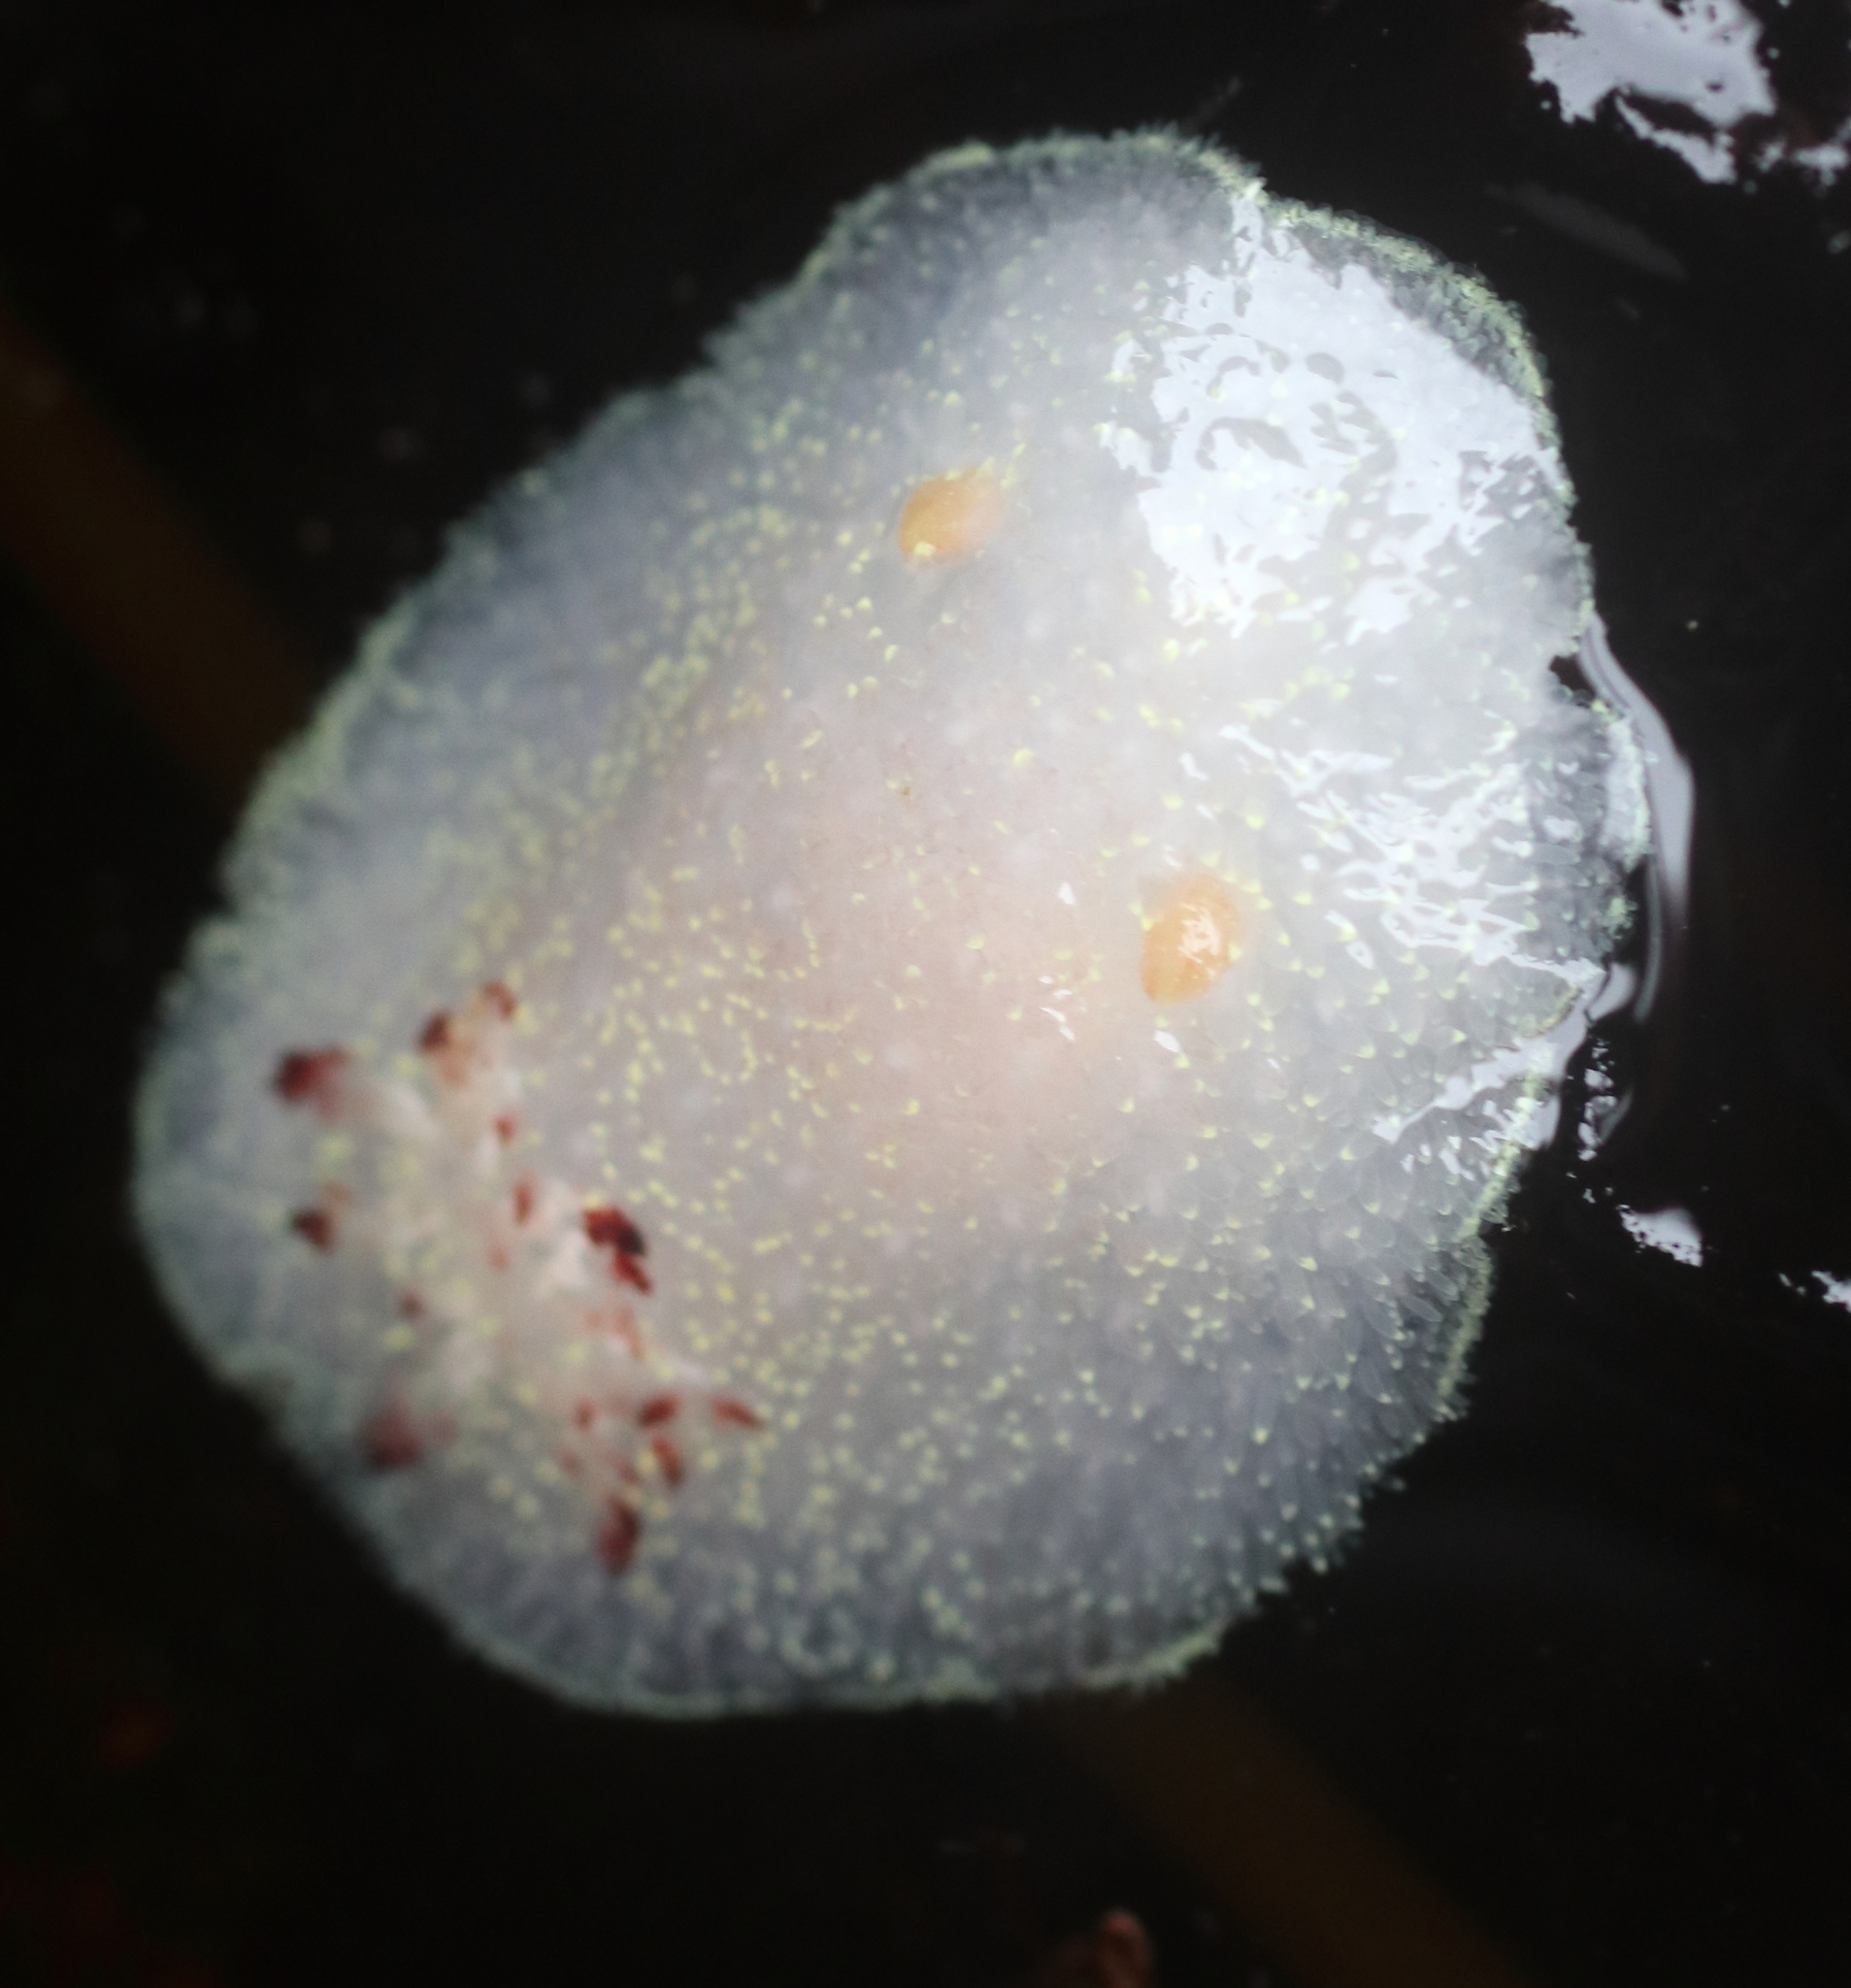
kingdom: Animalia
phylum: Mollusca
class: Gastropoda
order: Nudibranchia
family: Onchidorididae
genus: Acanthodoris
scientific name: Acanthodoris nanaimoensis
